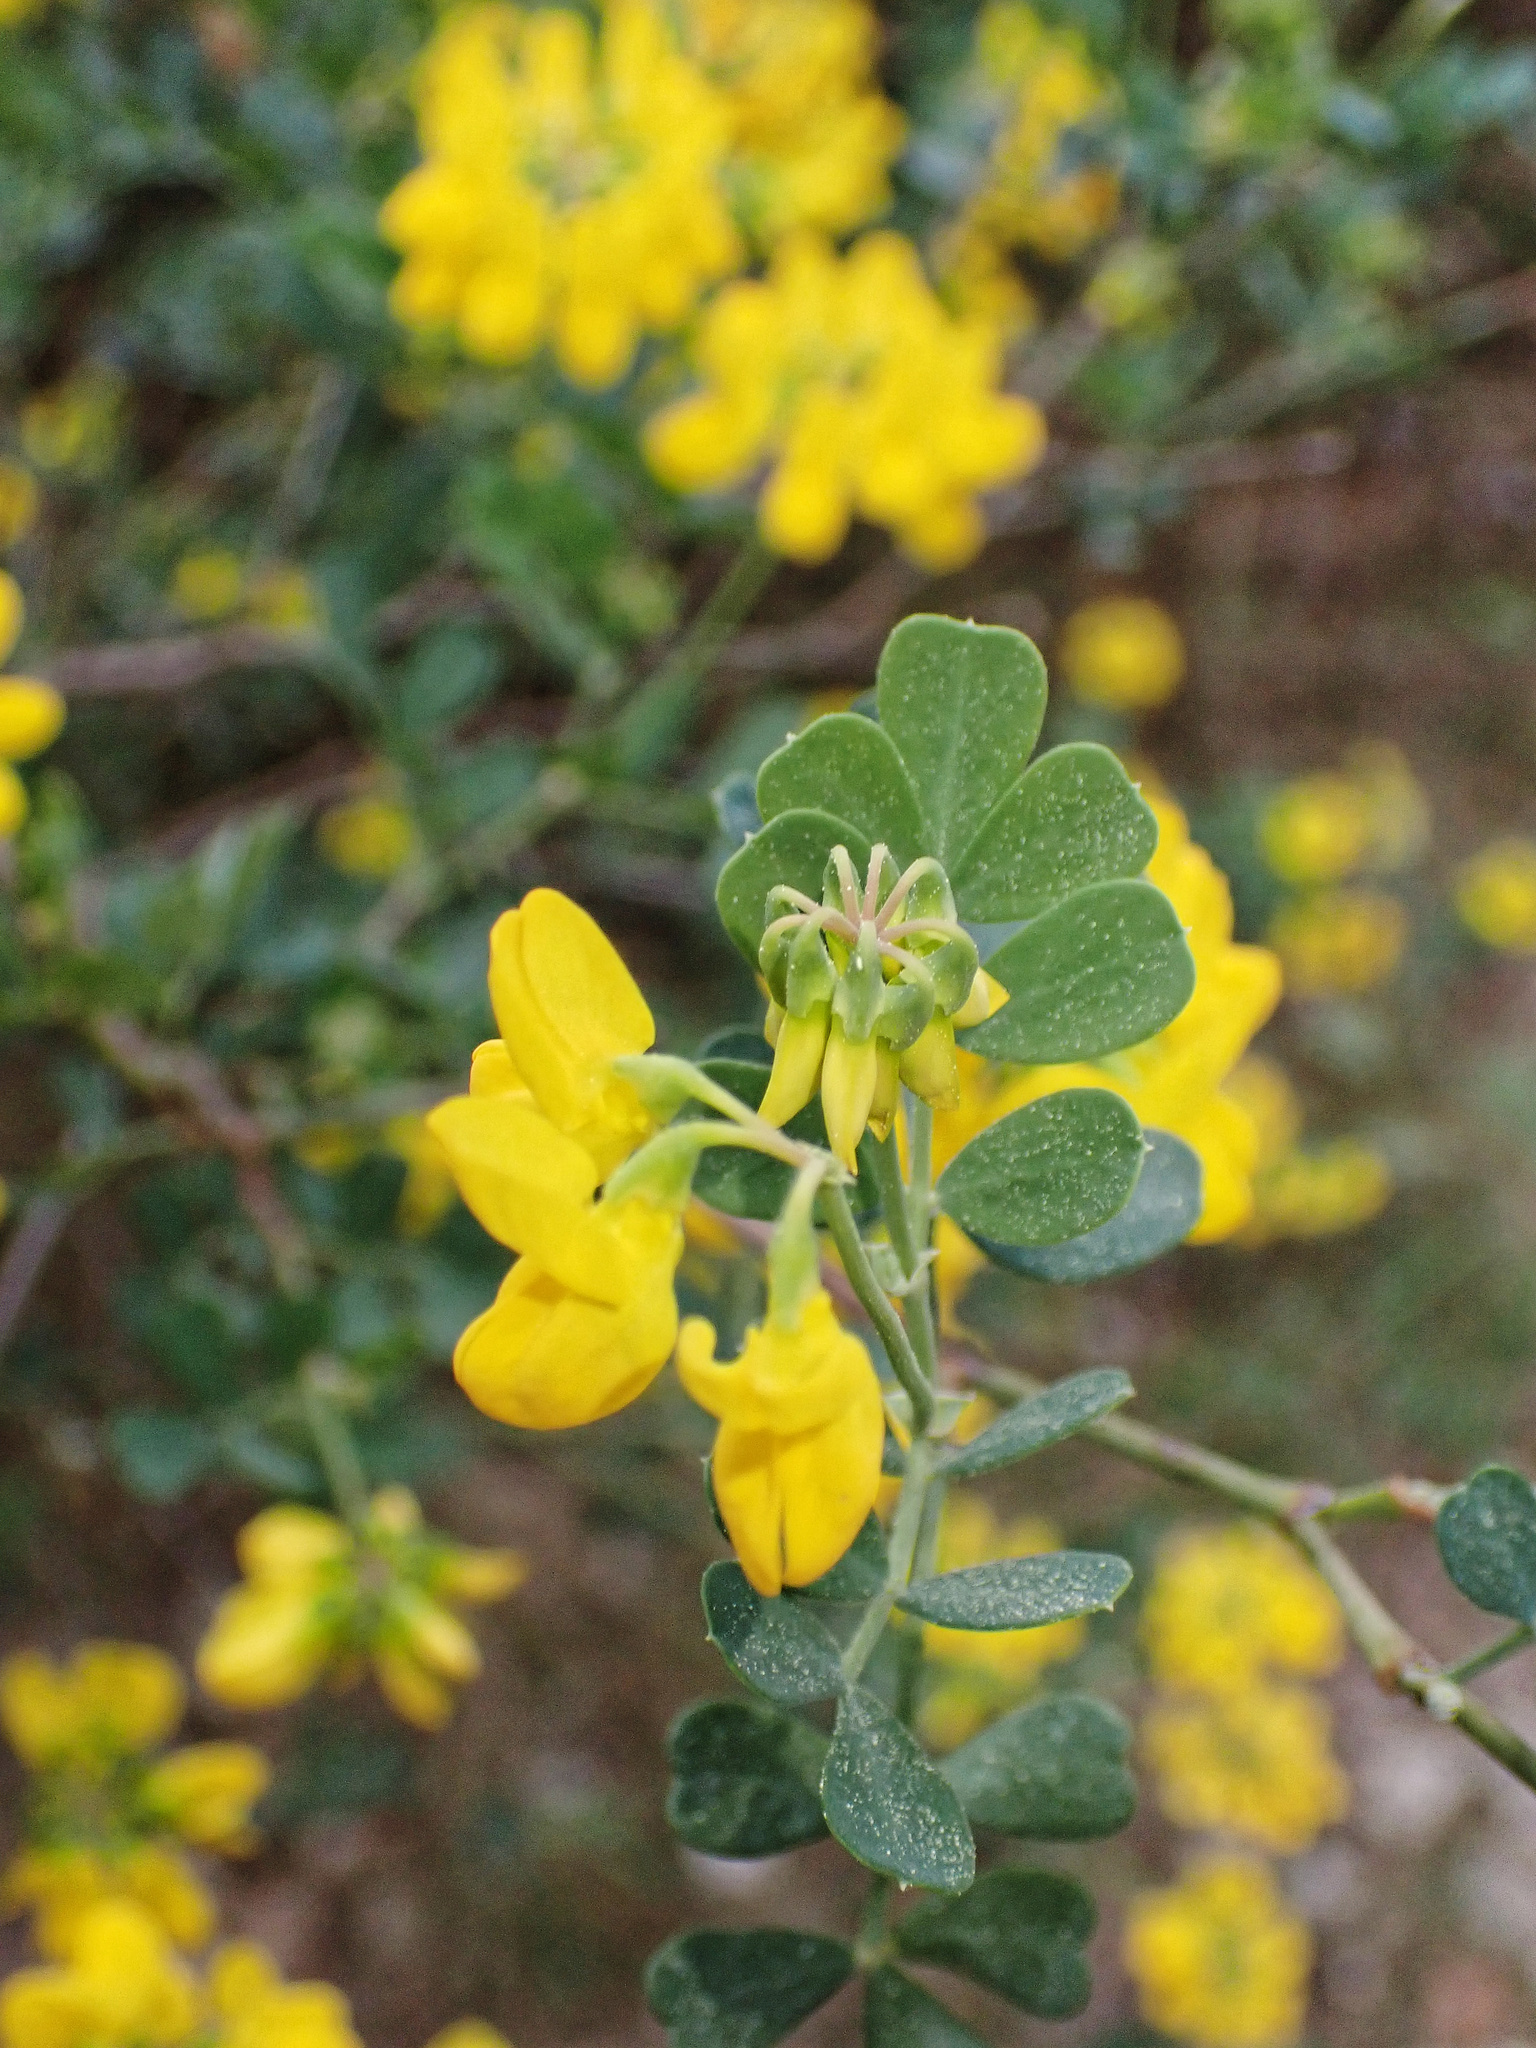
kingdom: Plantae
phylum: Tracheophyta
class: Magnoliopsida
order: Fabales
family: Fabaceae
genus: Coronilla
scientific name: Coronilla valentina
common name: Shrubby scorpion-vetch
